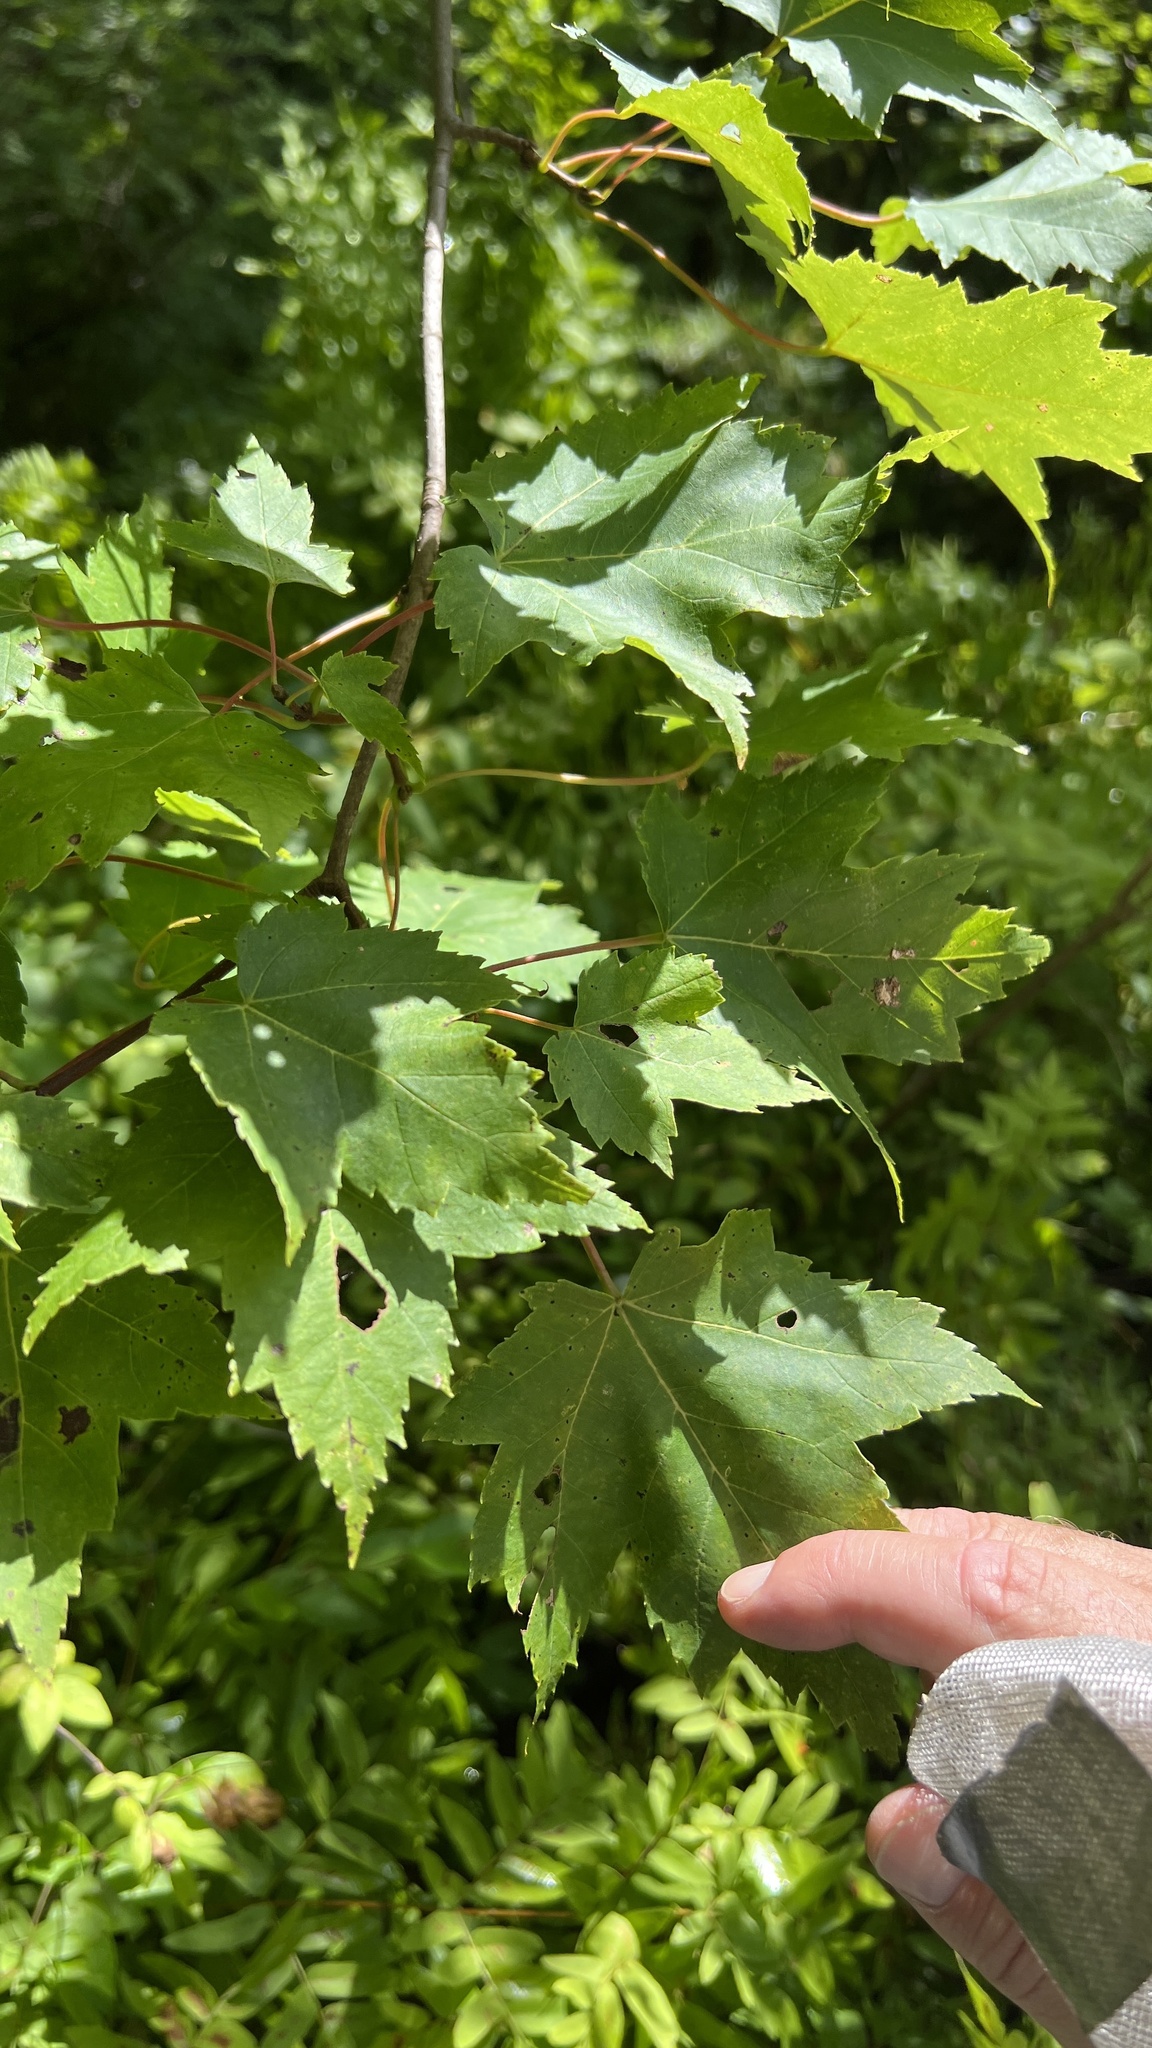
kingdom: Plantae
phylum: Tracheophyta
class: Magnoliopsida
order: Sapindales
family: Sapindaceae
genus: Acer
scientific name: Acer rubrum
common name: Red maple
